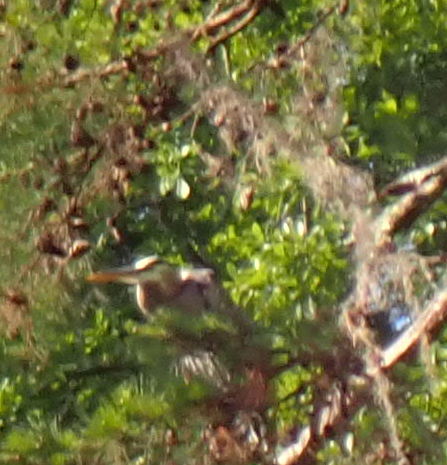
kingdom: Animalia
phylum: Chordata
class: Aves
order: Pelecaniformes
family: Ardeidae
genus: Ardea
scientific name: Ardea herodias
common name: Great blue heron
